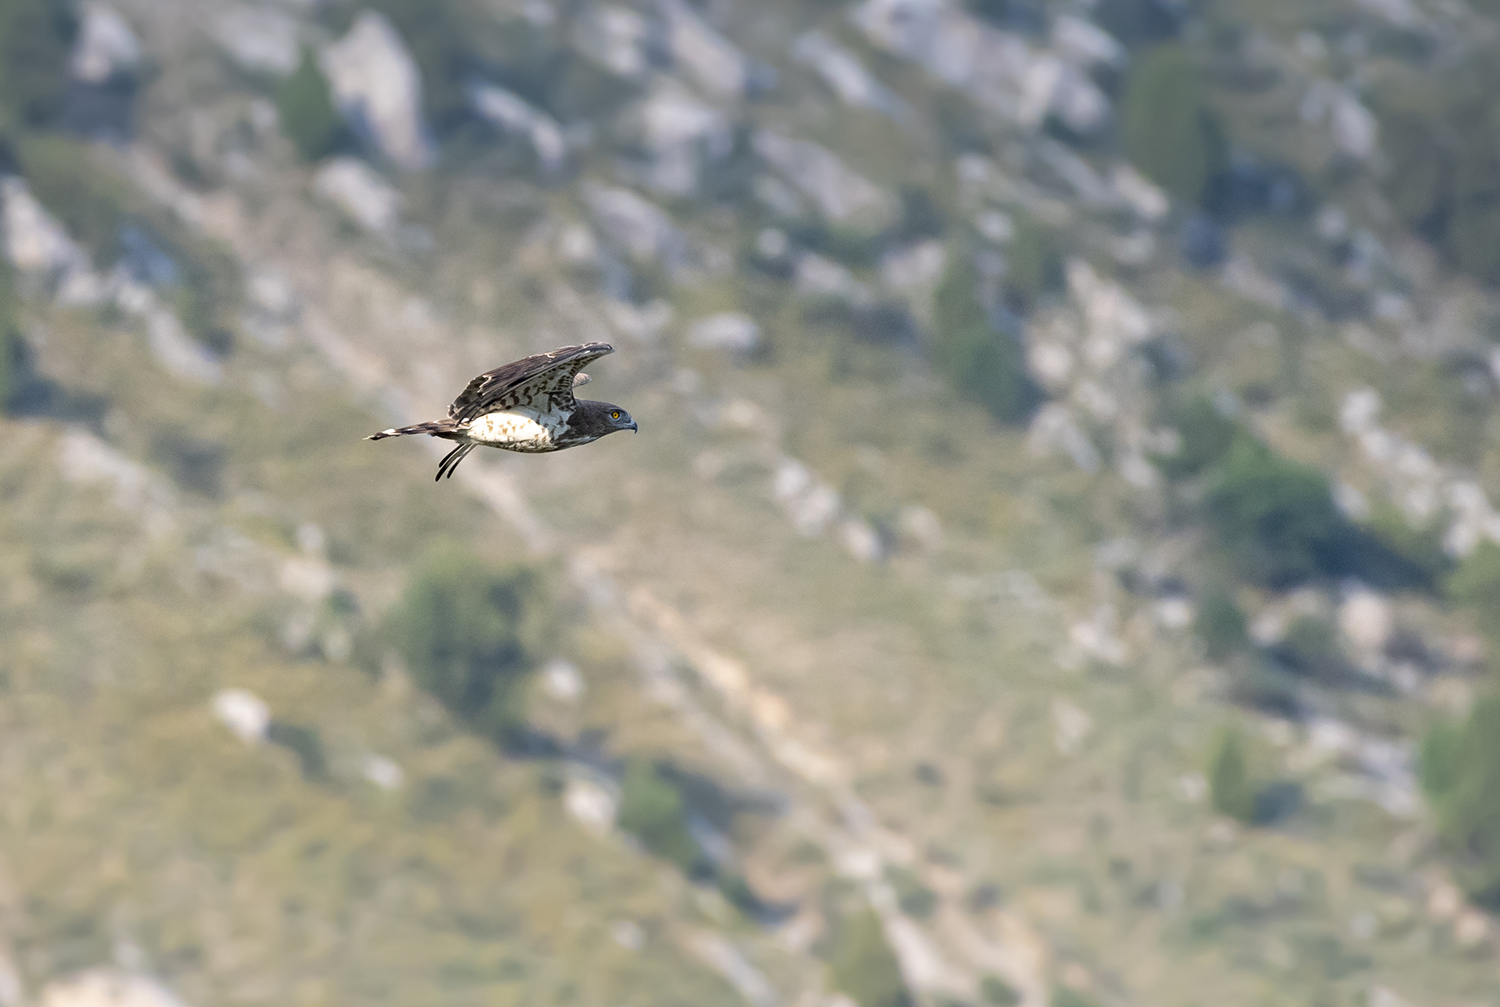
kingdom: Animalia
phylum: Chordata
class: Aves
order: Accipitriformes
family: Accipitridae
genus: Circaetus
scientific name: Circaetus gallicus
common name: Short-toed snake eagle
